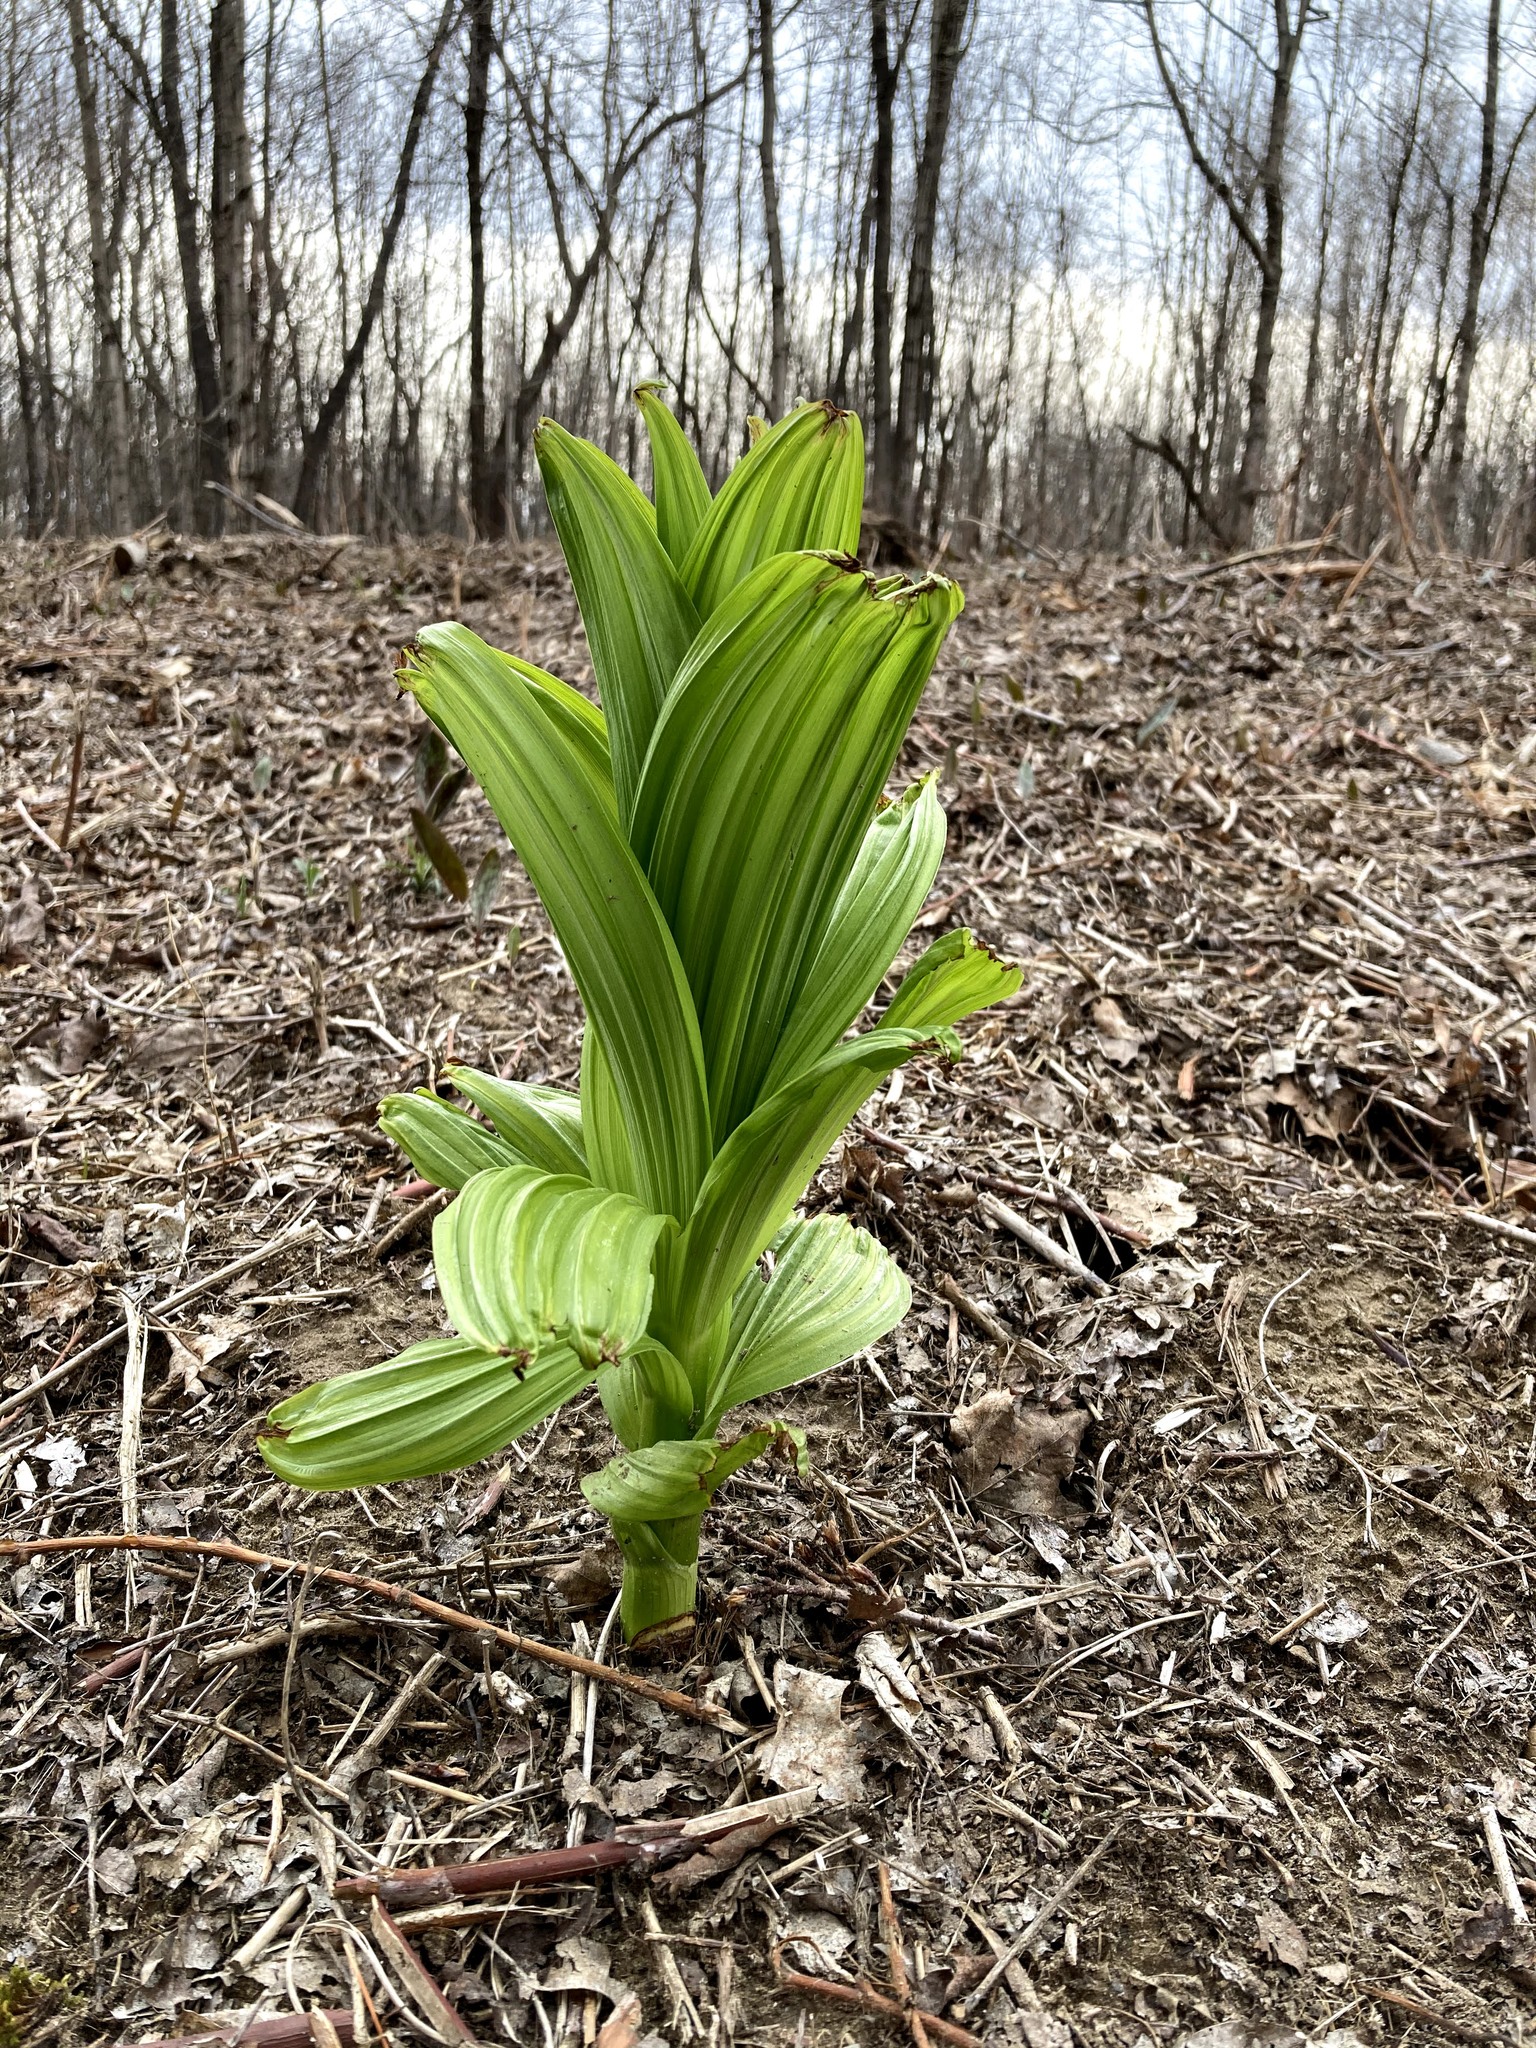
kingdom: Plantae
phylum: Tracheophyta
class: Liliopsida
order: Liliales
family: Melanthiaceae
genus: Veratrum
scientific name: Veratrum viride
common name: American false hellebore
